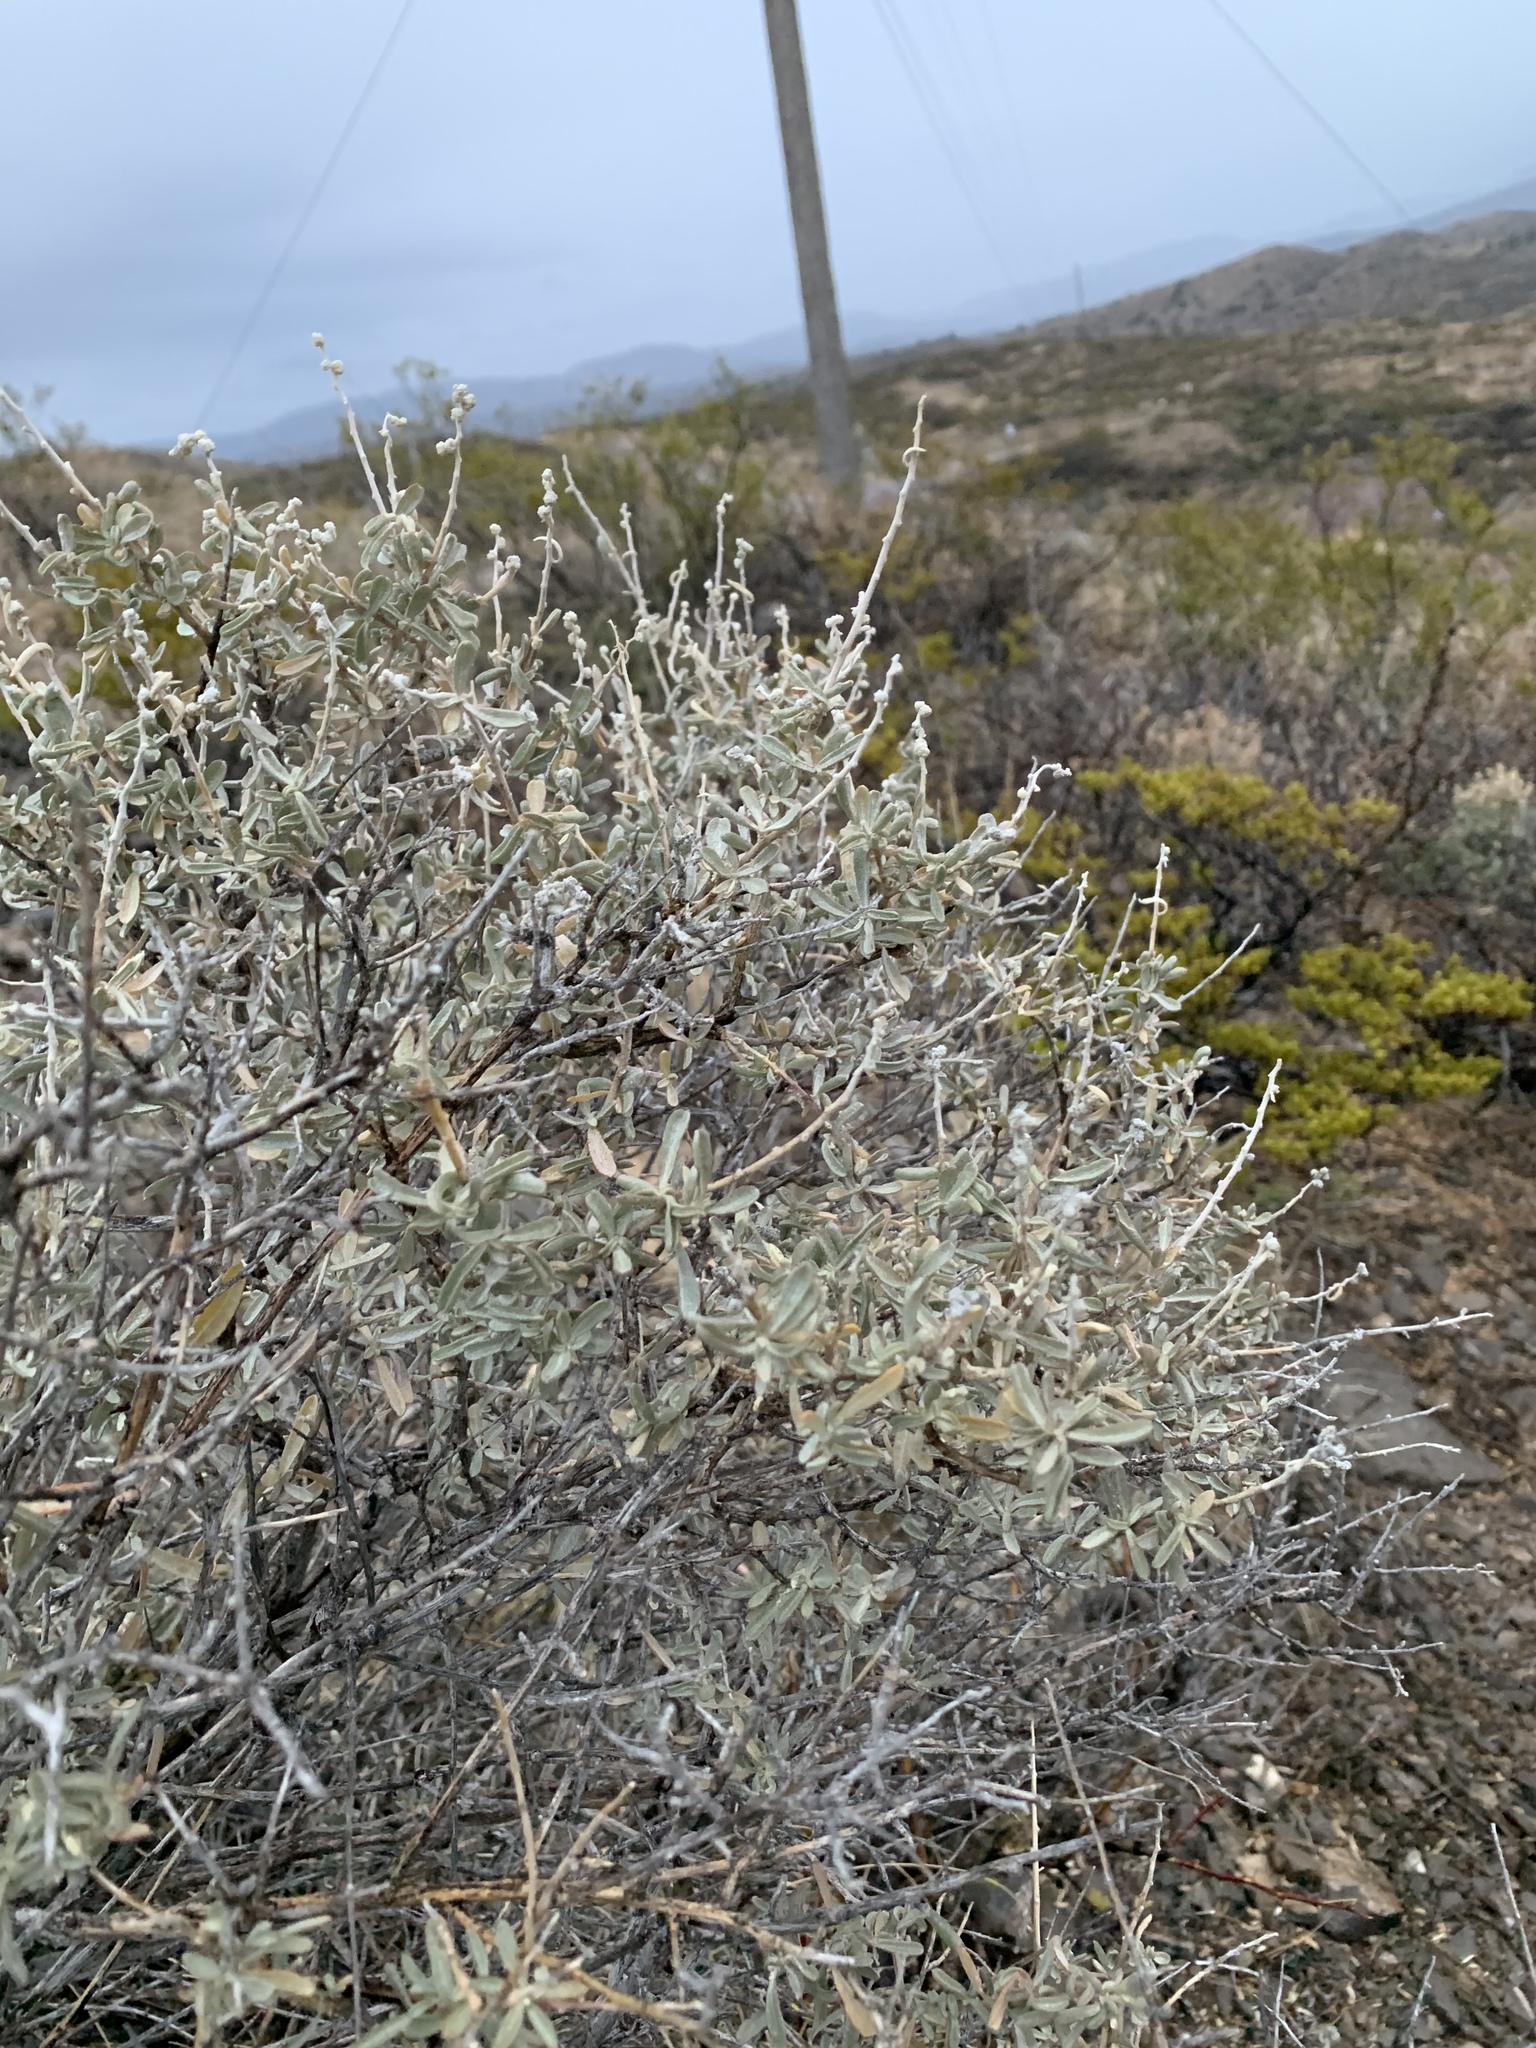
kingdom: Plantae
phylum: Tracheophyta
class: Magnoliopsida
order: Caryophyllales
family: Amaranthaceae
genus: Atriplex
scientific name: Atriplex canescens
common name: Four-wing saltbush
